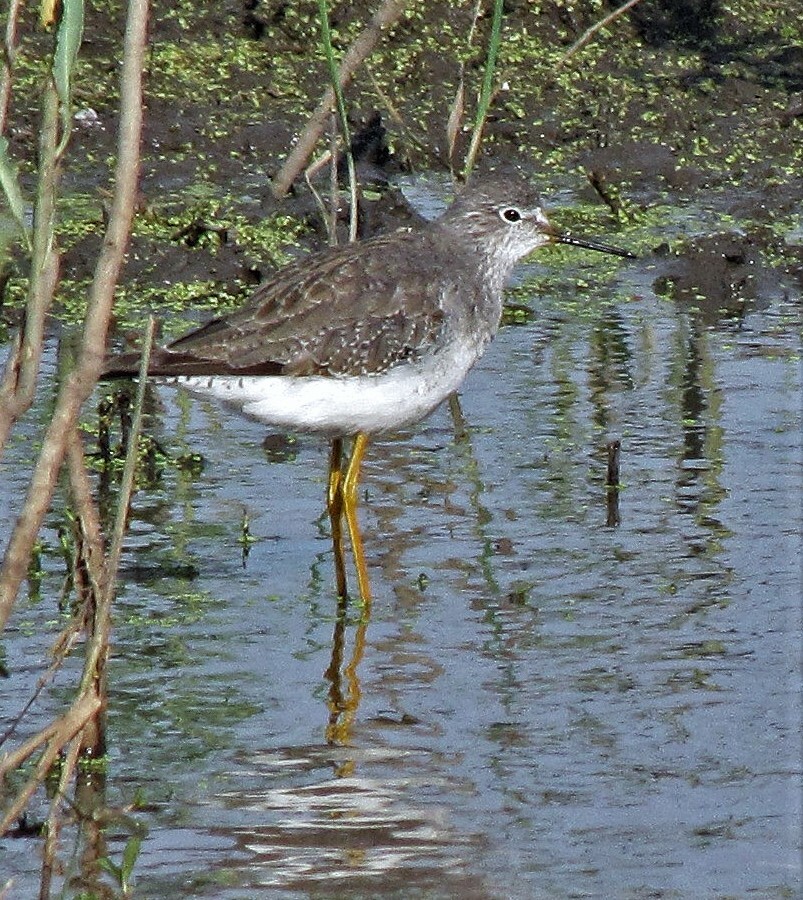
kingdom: Animalia
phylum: Chordata
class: Aves
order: Charadriiformes
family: Scolopacidae
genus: Tringa
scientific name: Tringa flavipes
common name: Lesser yellowlegs
